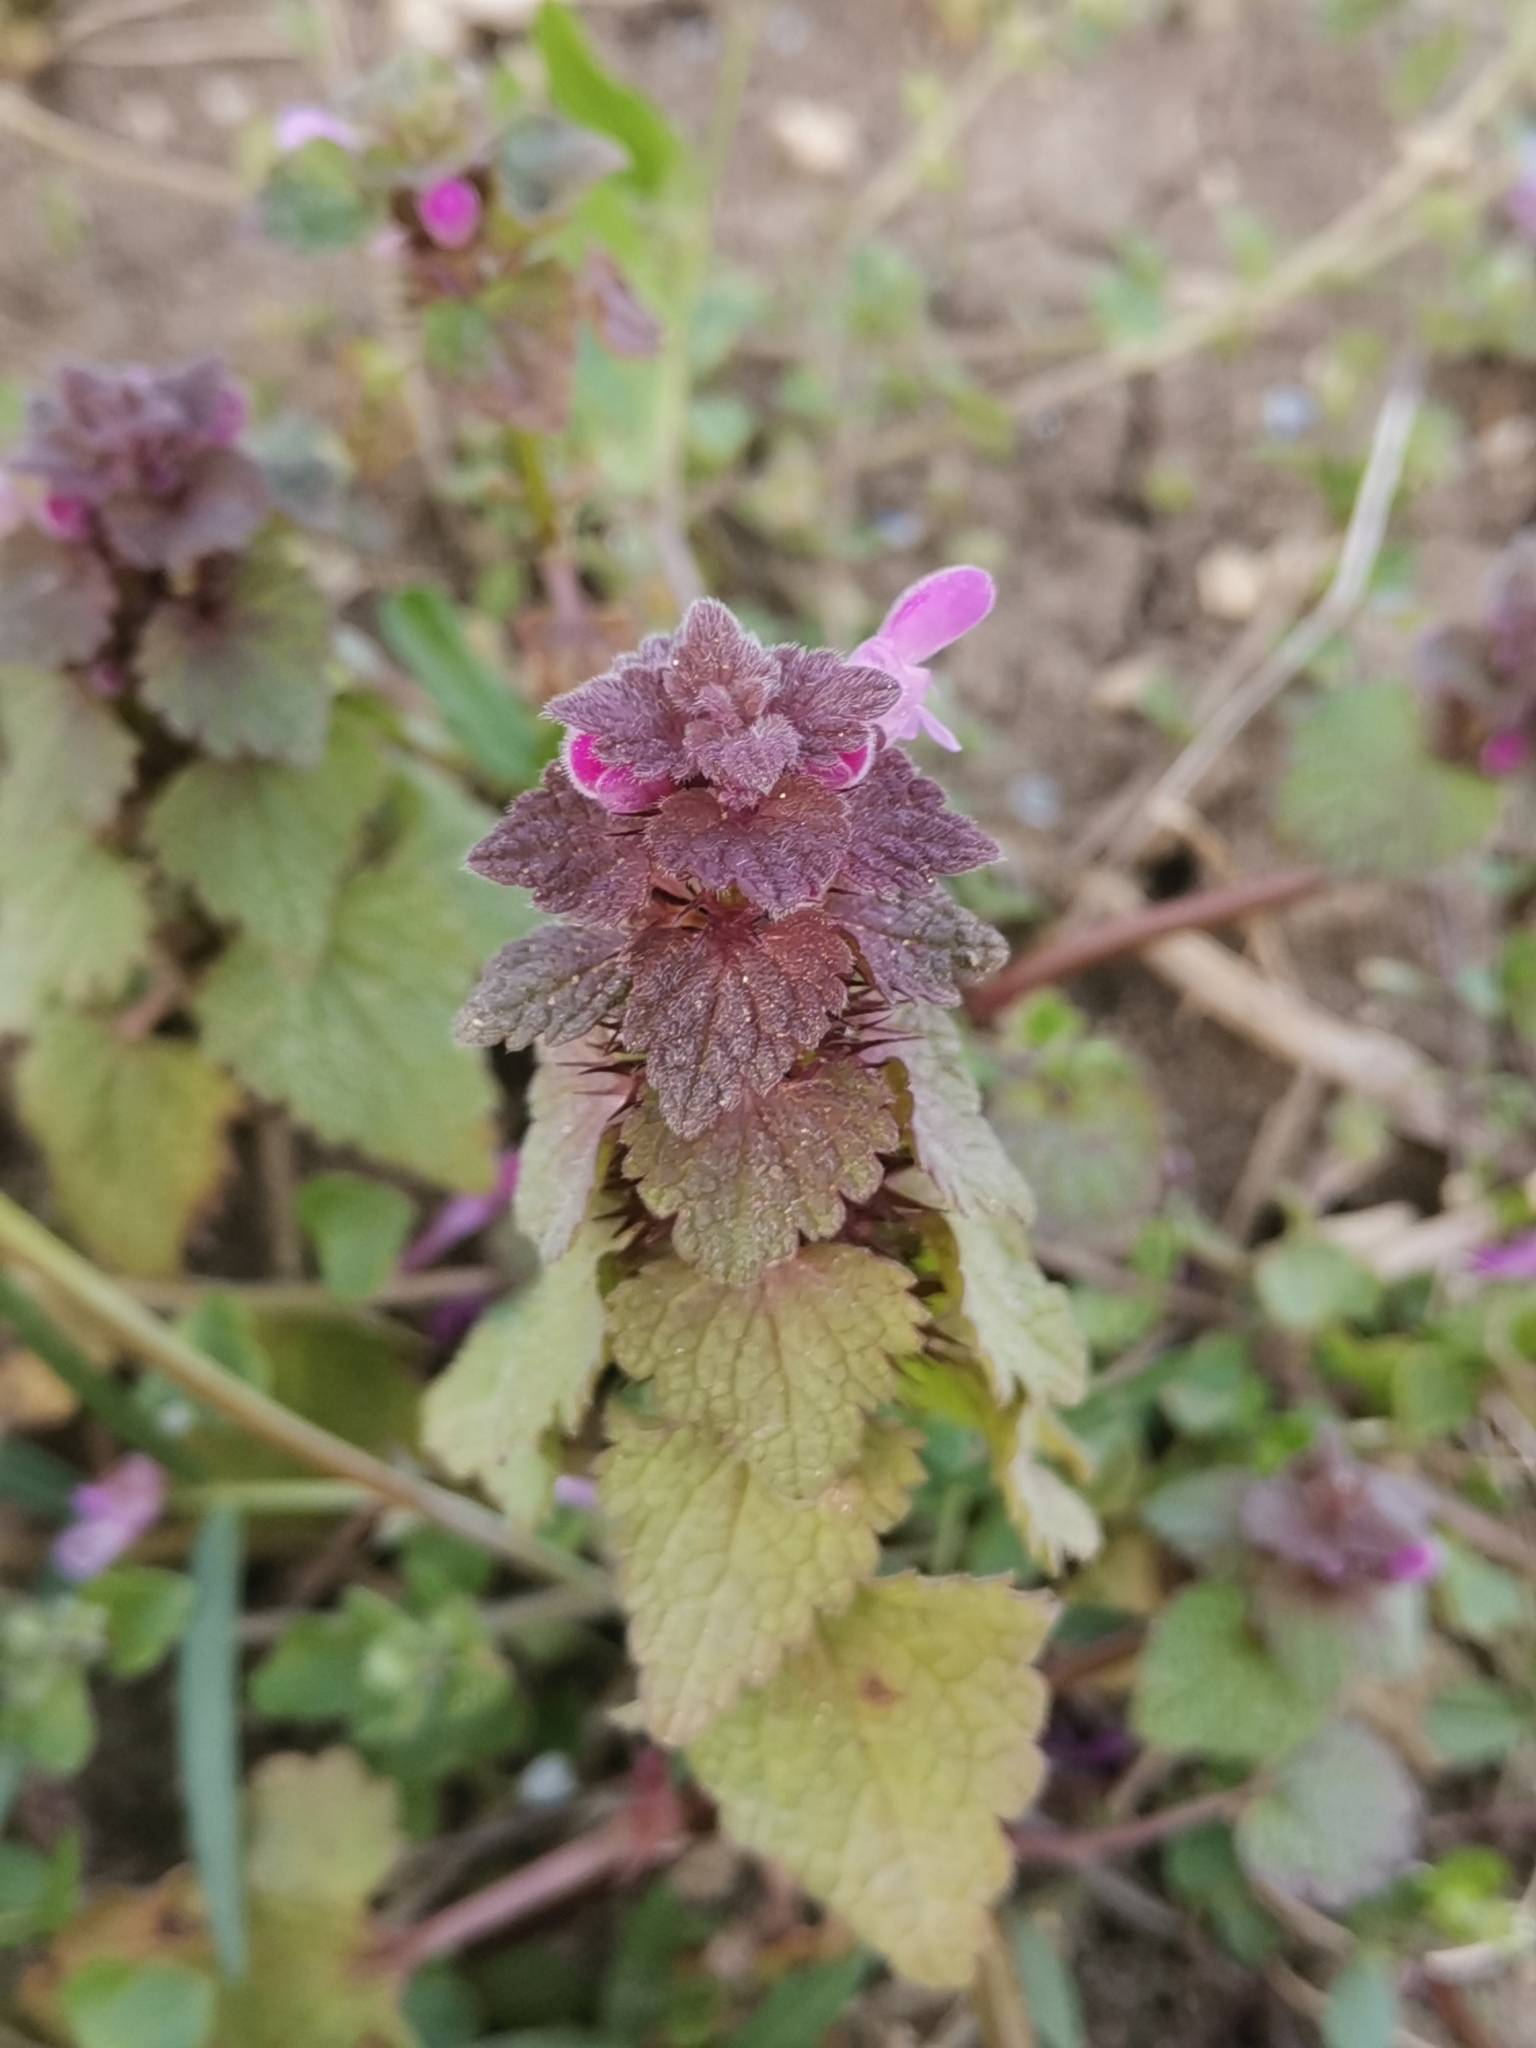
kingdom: Plantae
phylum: Tracheophyta
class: Magnoliopsida
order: Lamiales
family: Lamiaceae
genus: Lamium
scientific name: Lamium purpureum
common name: Red dead-nettle
